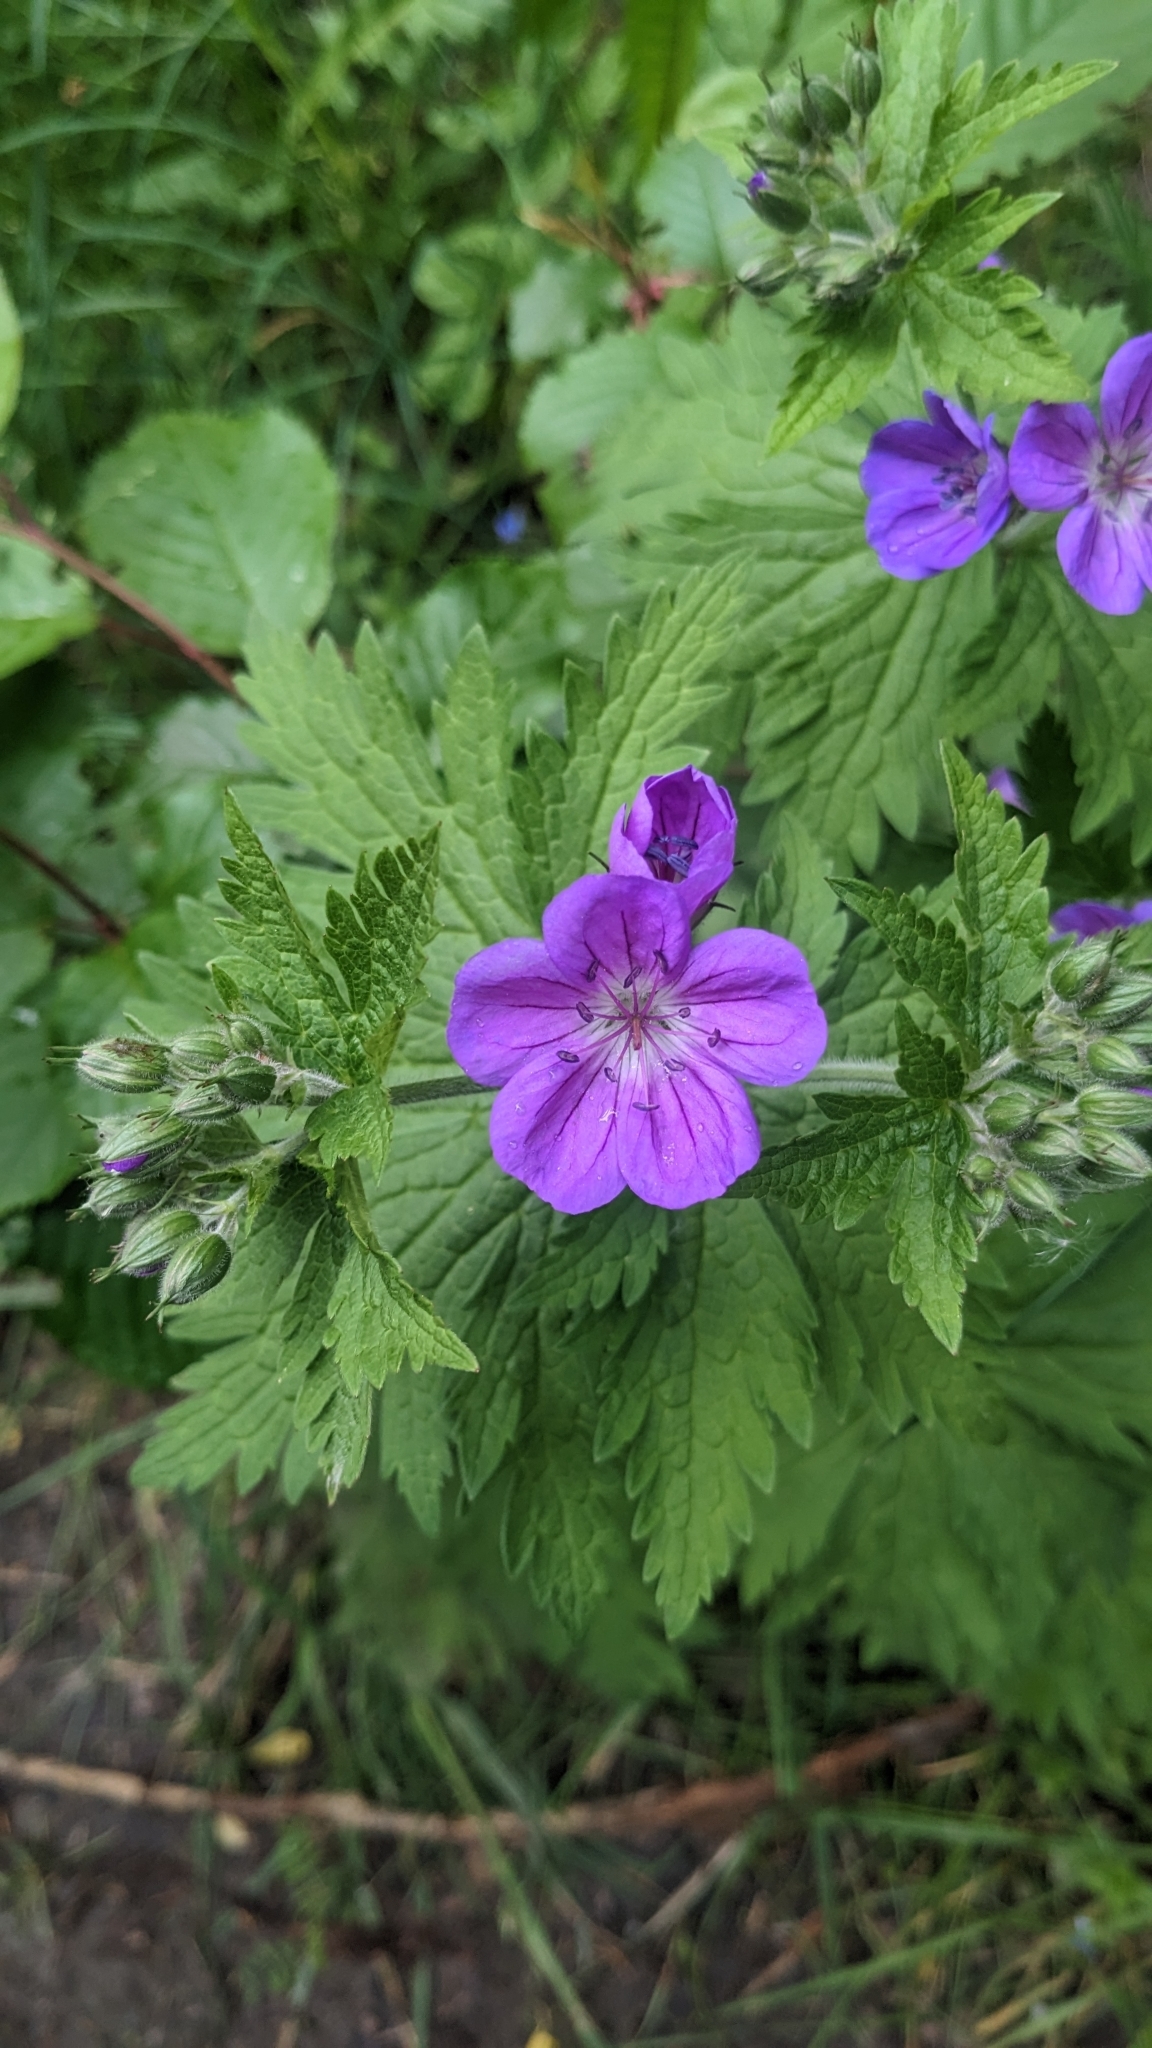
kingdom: Plantae
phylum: Tracheophyta
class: Magnoliopsida
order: Geraniales
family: Geraniaceae
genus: Geranium
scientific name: Geranium sylvaticum
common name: Wood crane's-bill
